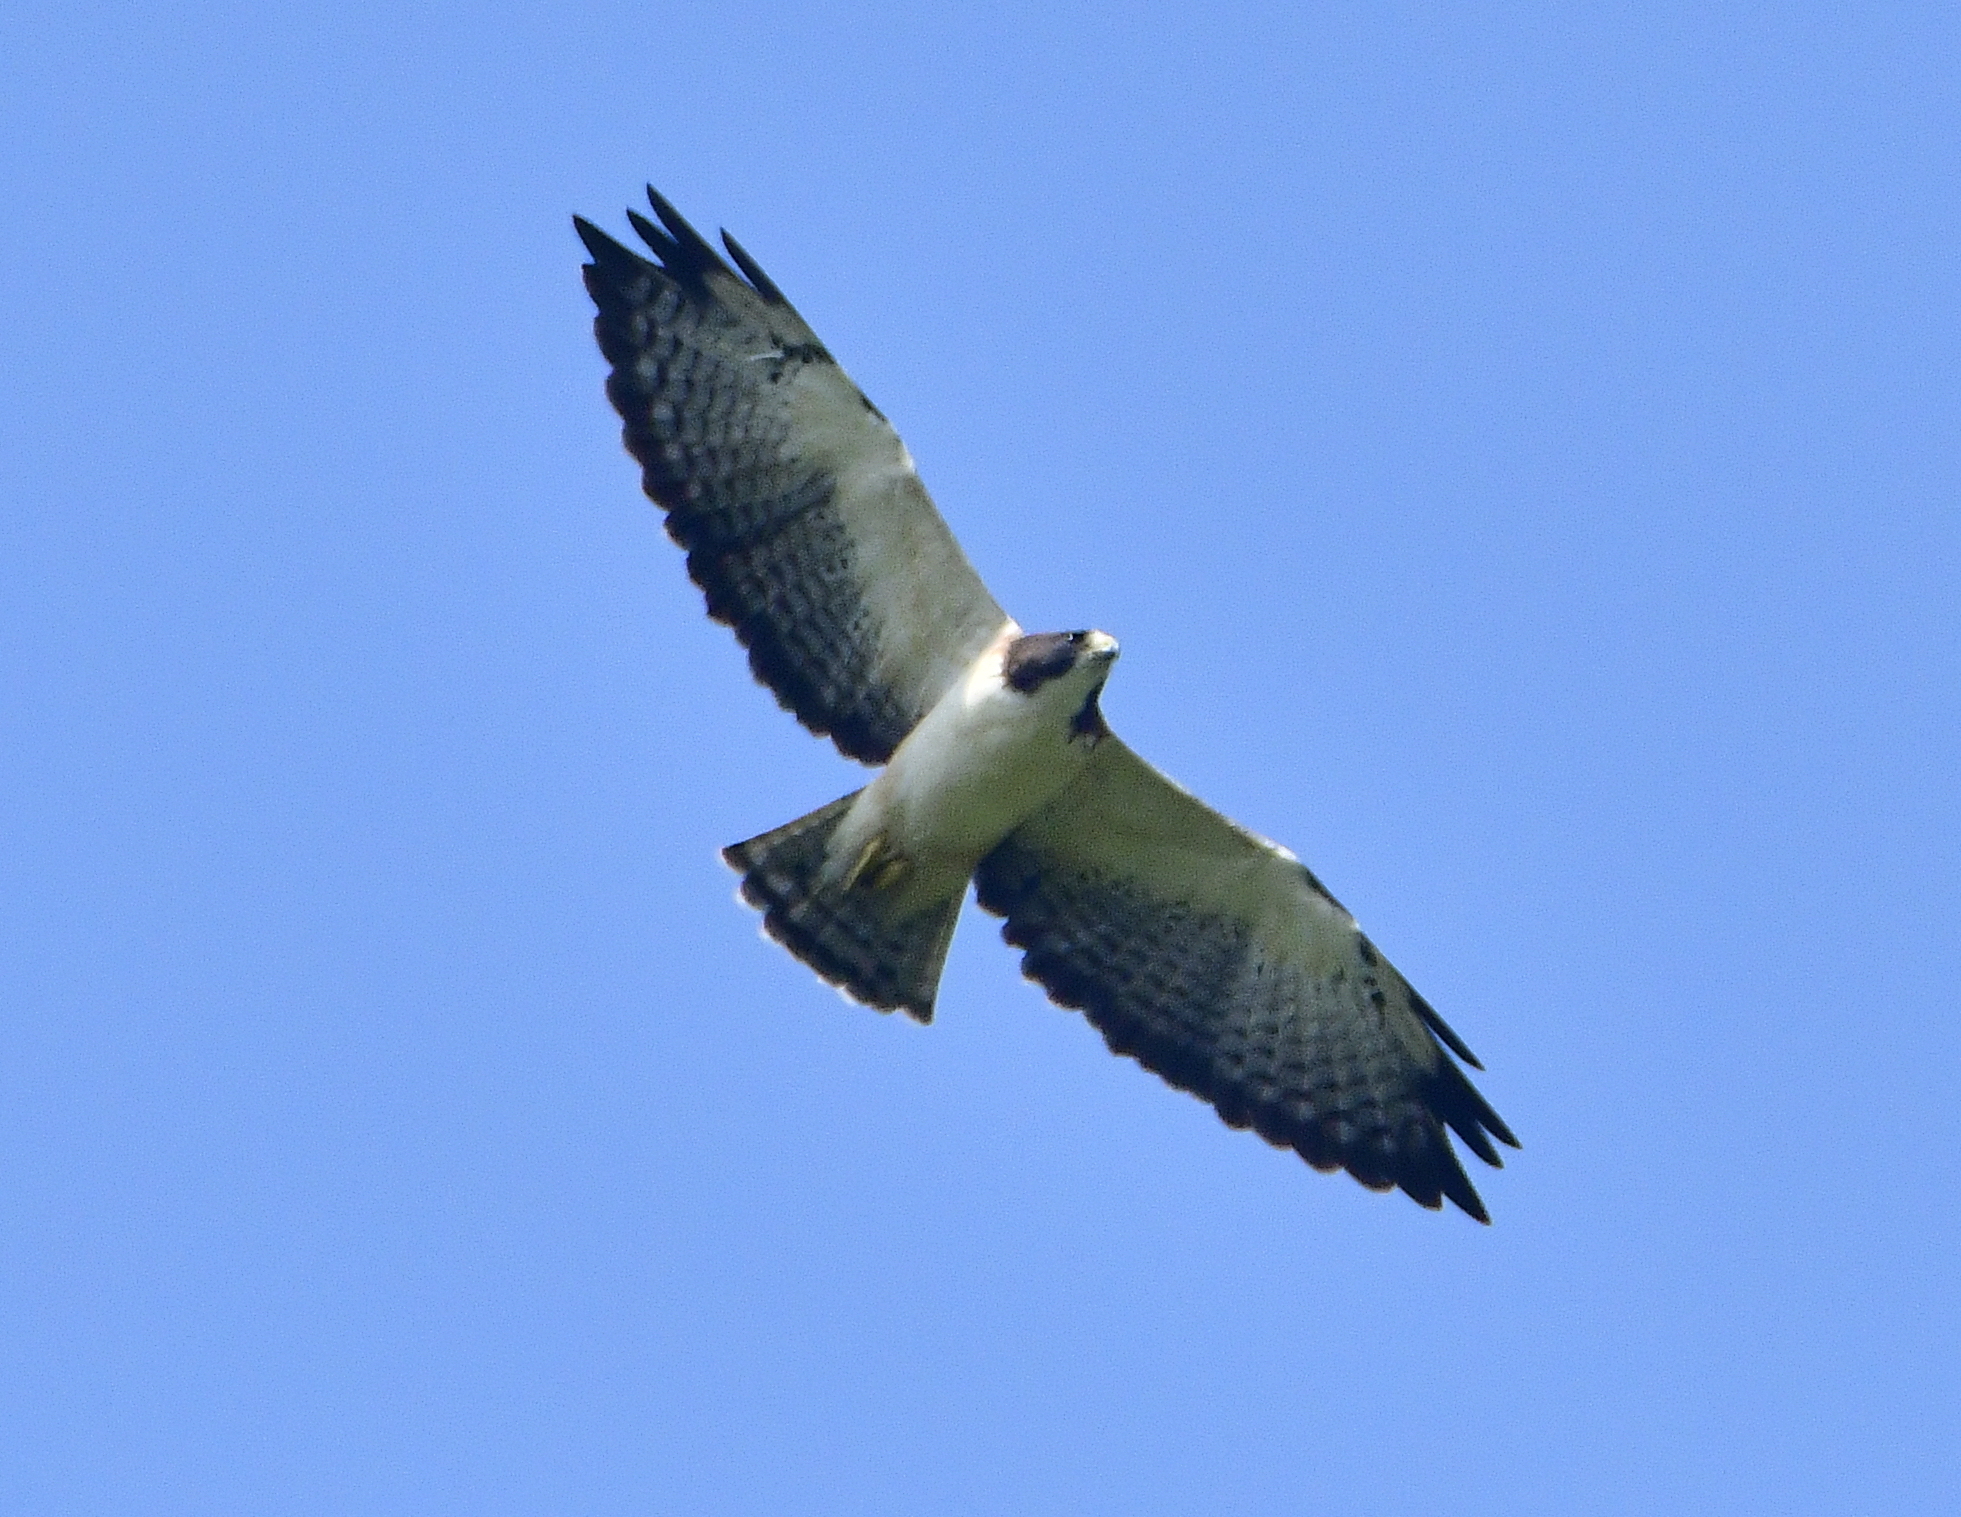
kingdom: Animalia
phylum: Chordata
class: Aves
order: Accipitriformes
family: Accipitridae
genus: Buteo
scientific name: Buteo brachyurus
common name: Short-tailed hawk
